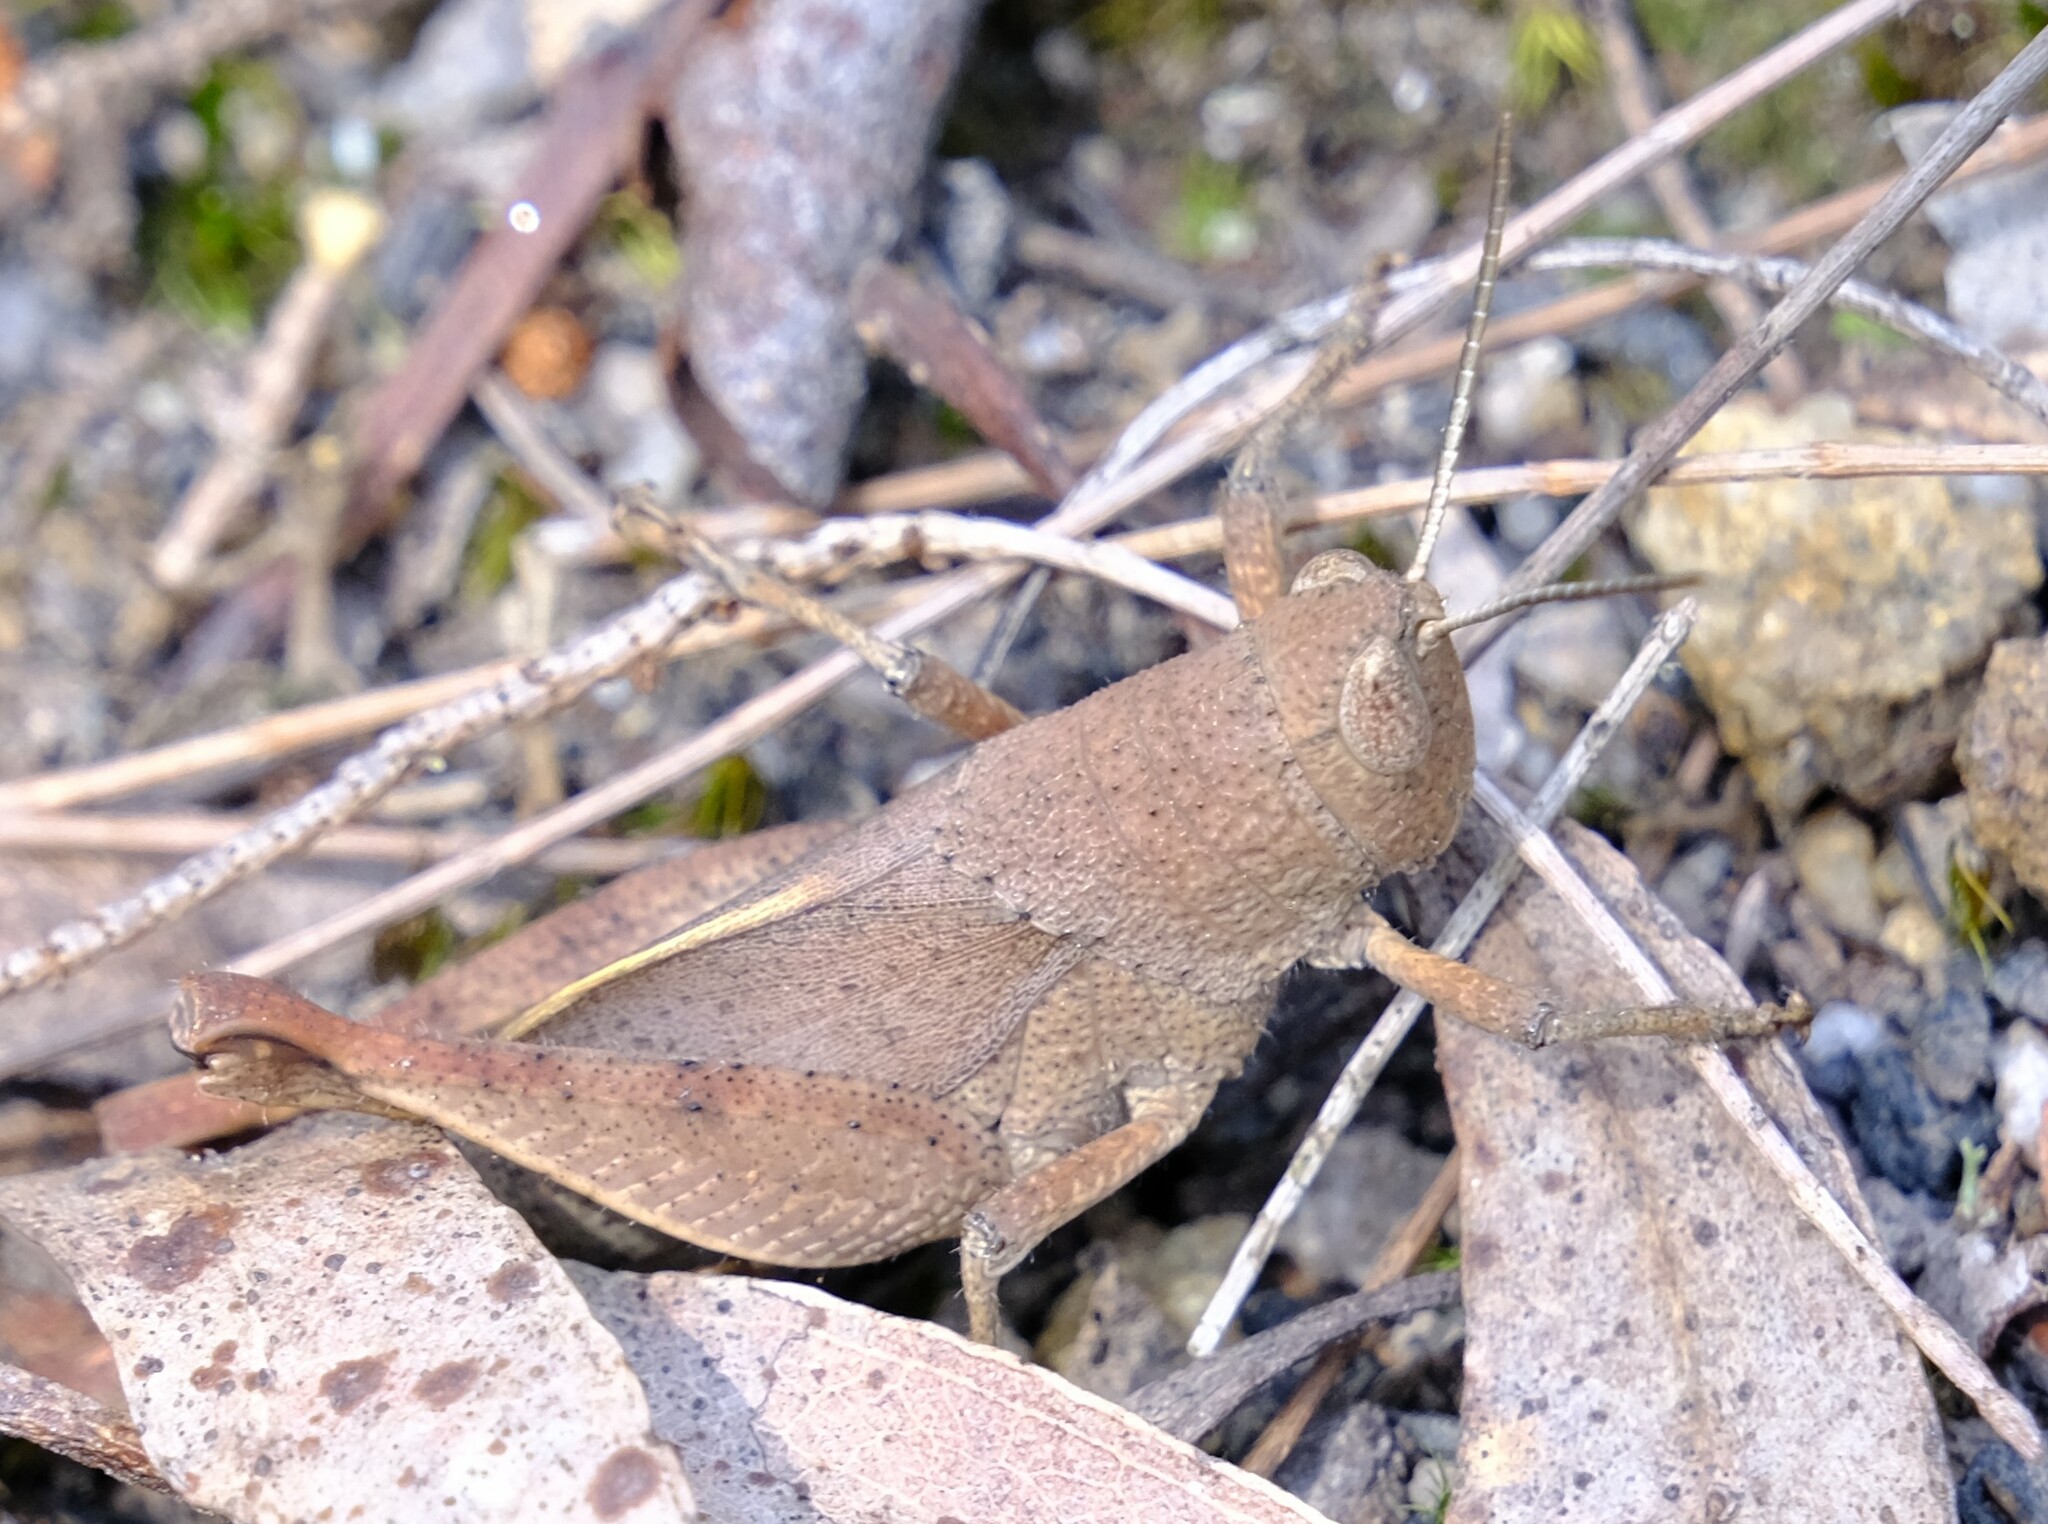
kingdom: Animalia
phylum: Arthropoda
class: Insecta
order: Orthoptera
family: Acrididae
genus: Rhitzala
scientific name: Rhitzala modesta
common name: Short-winged heath grasshopper
